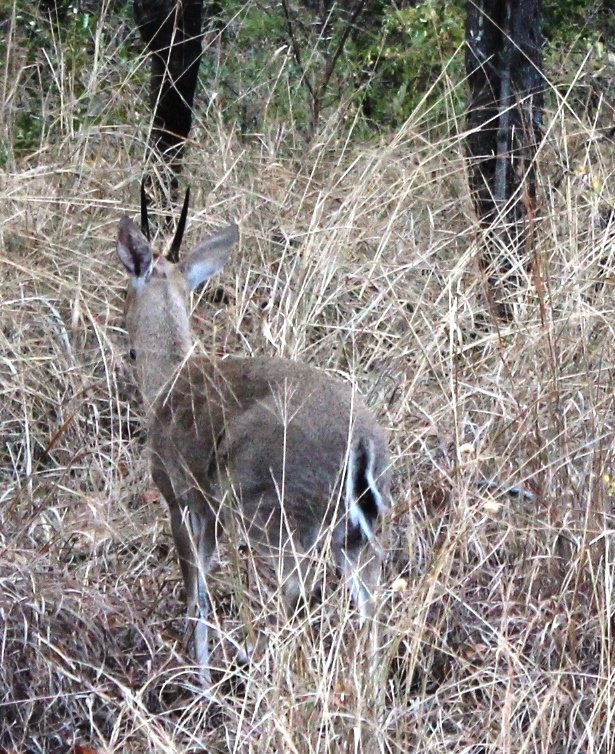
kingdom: Animalia
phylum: Chordata
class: Mammalia
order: Artiodactyla
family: Bovidae
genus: Sylvicapra
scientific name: Sylvicapra grimmia
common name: Bush duiker
